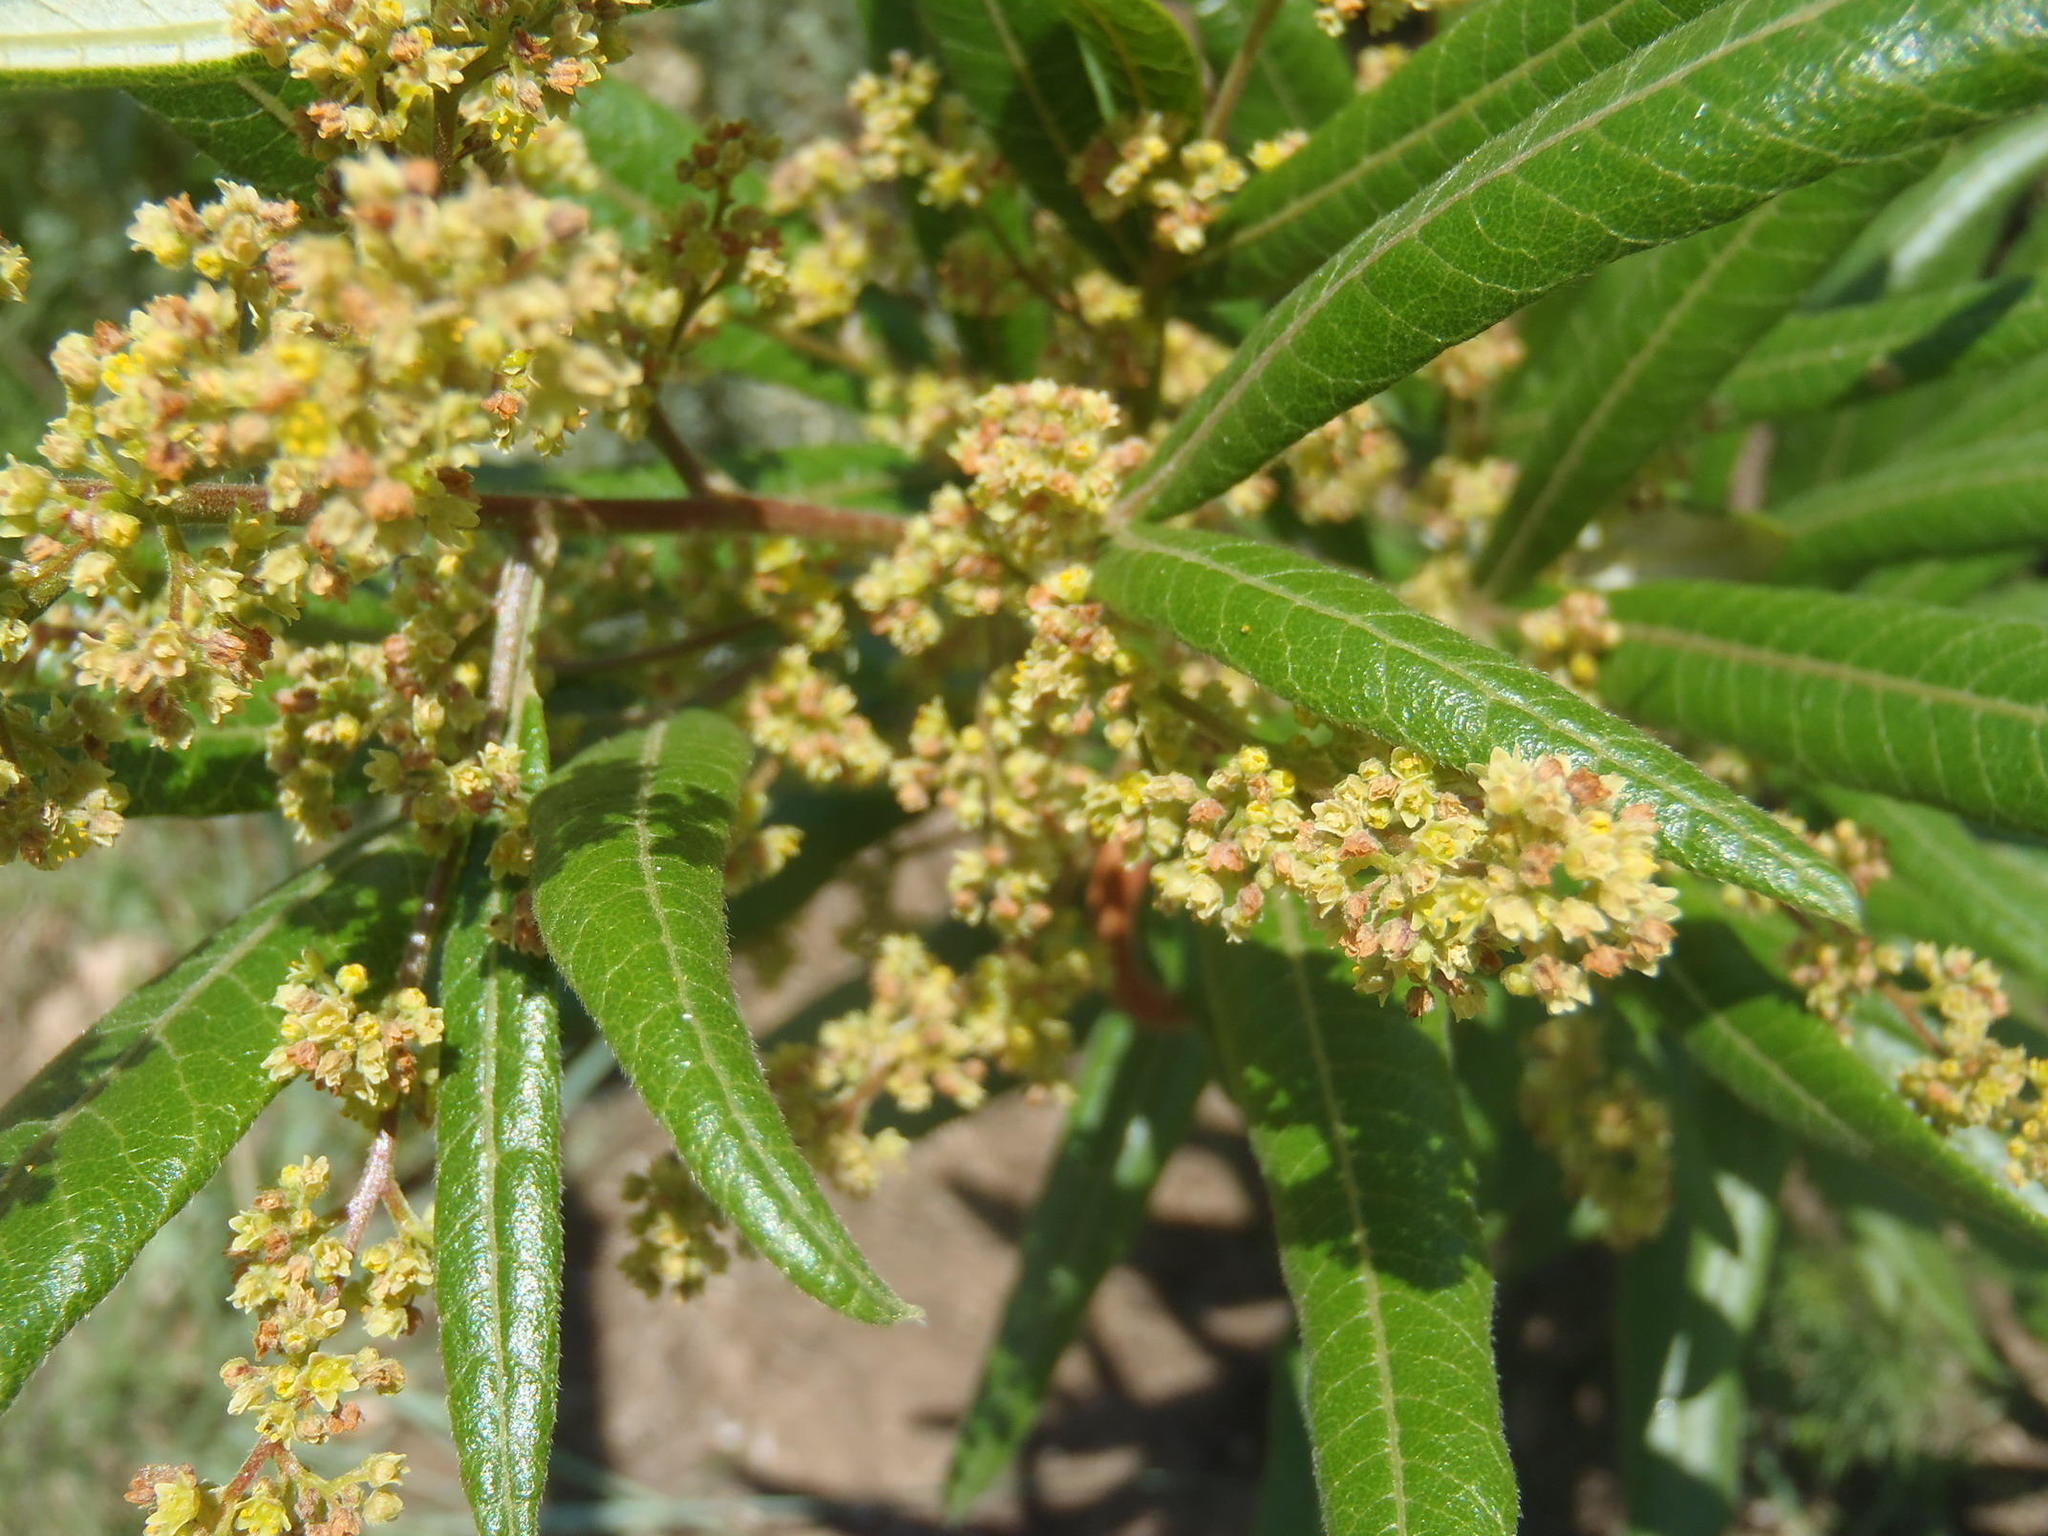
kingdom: Plantae
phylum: Tracheophyta
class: Magnoliopsida
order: Sapindales
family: Anacardiaceae
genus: Searsia
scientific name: Searsia discolor
